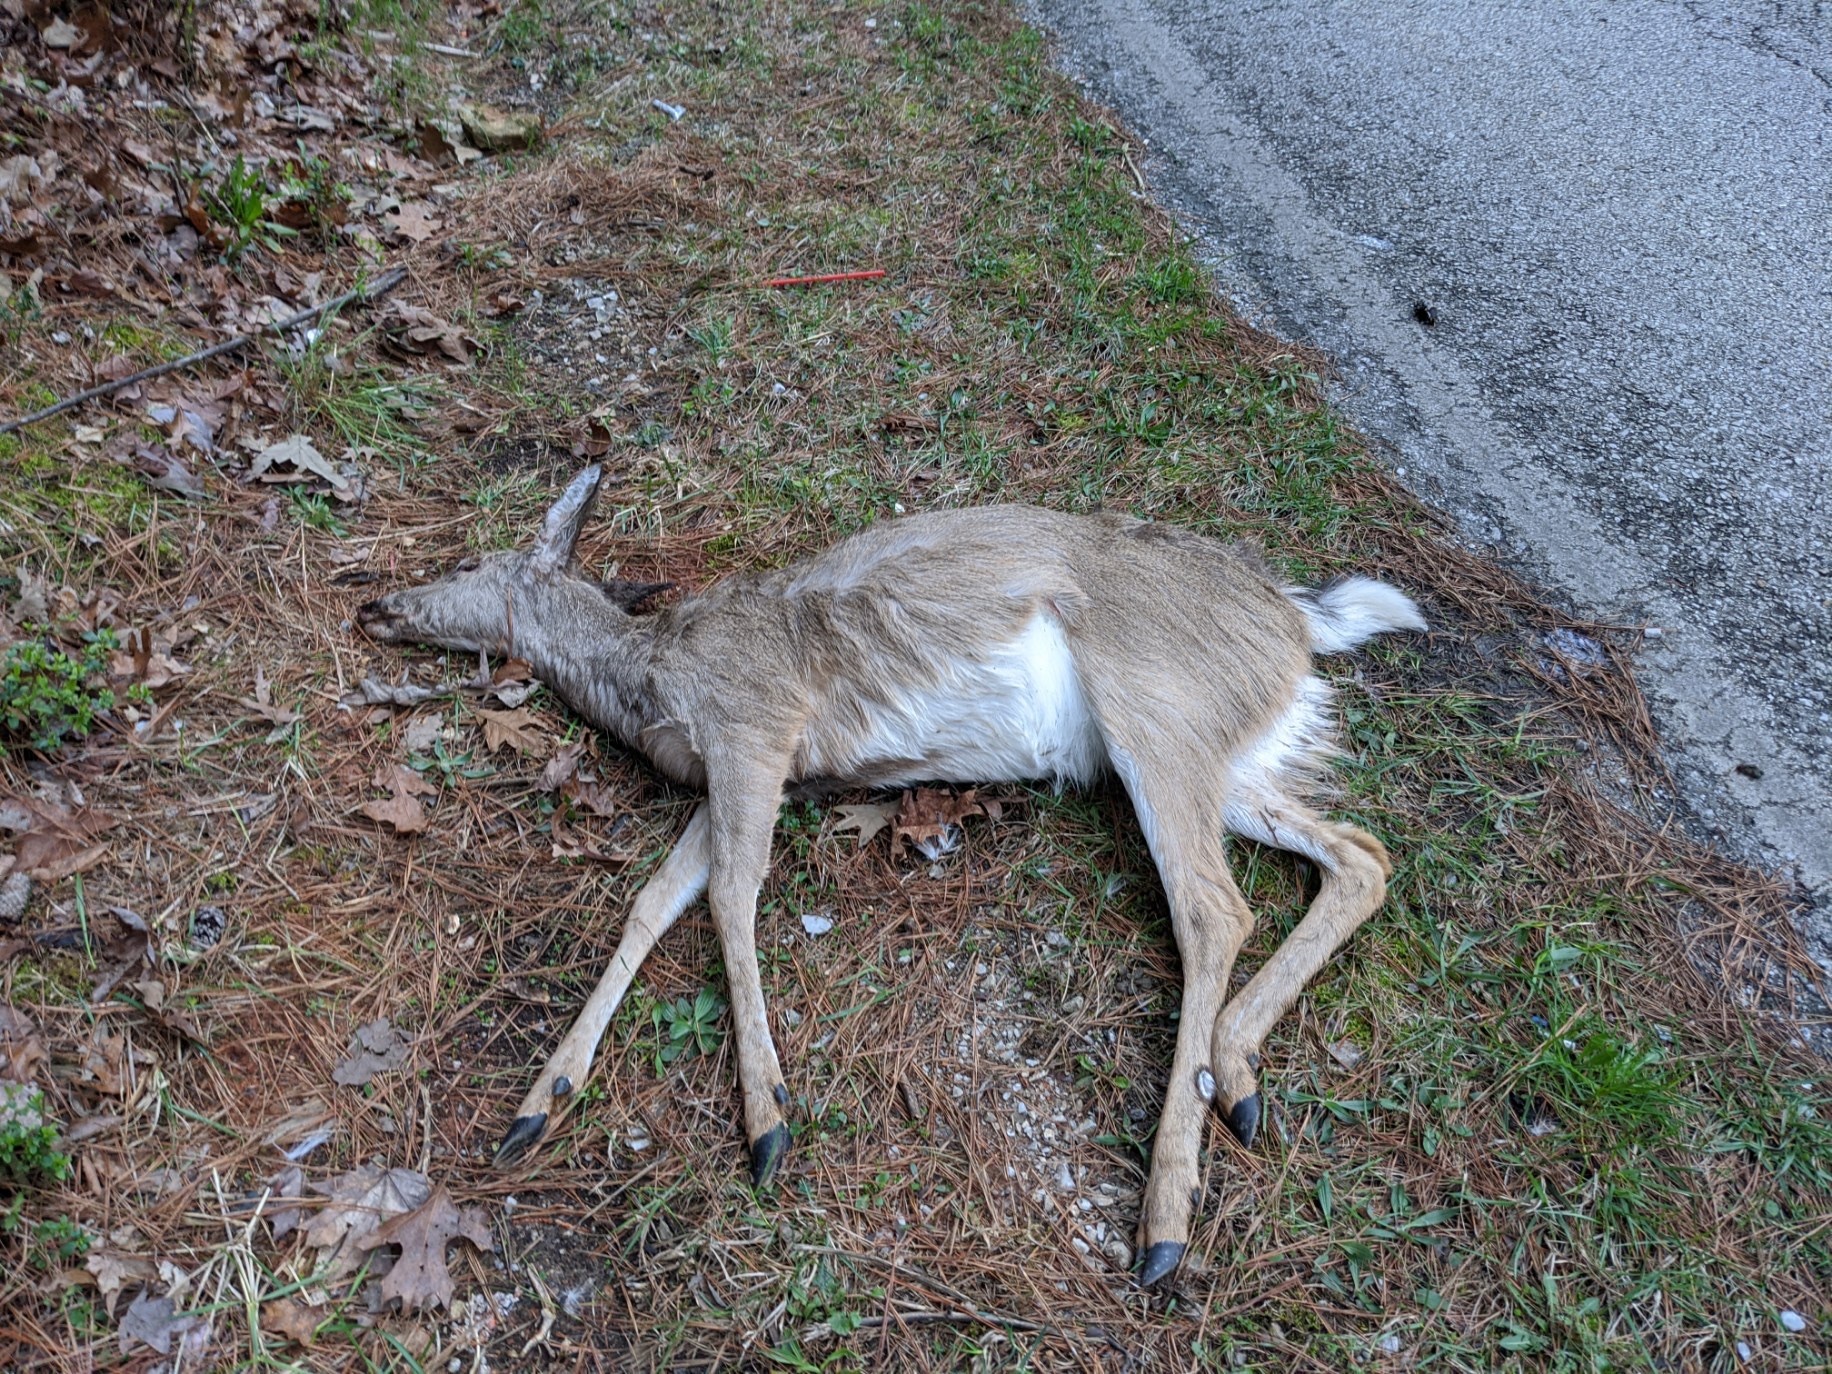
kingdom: Animalia
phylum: Chordata
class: Mammalia
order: Artiodactyla
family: Cervidae
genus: Odocoileus
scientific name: Odocoileus virginianus
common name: White-tailed deer
